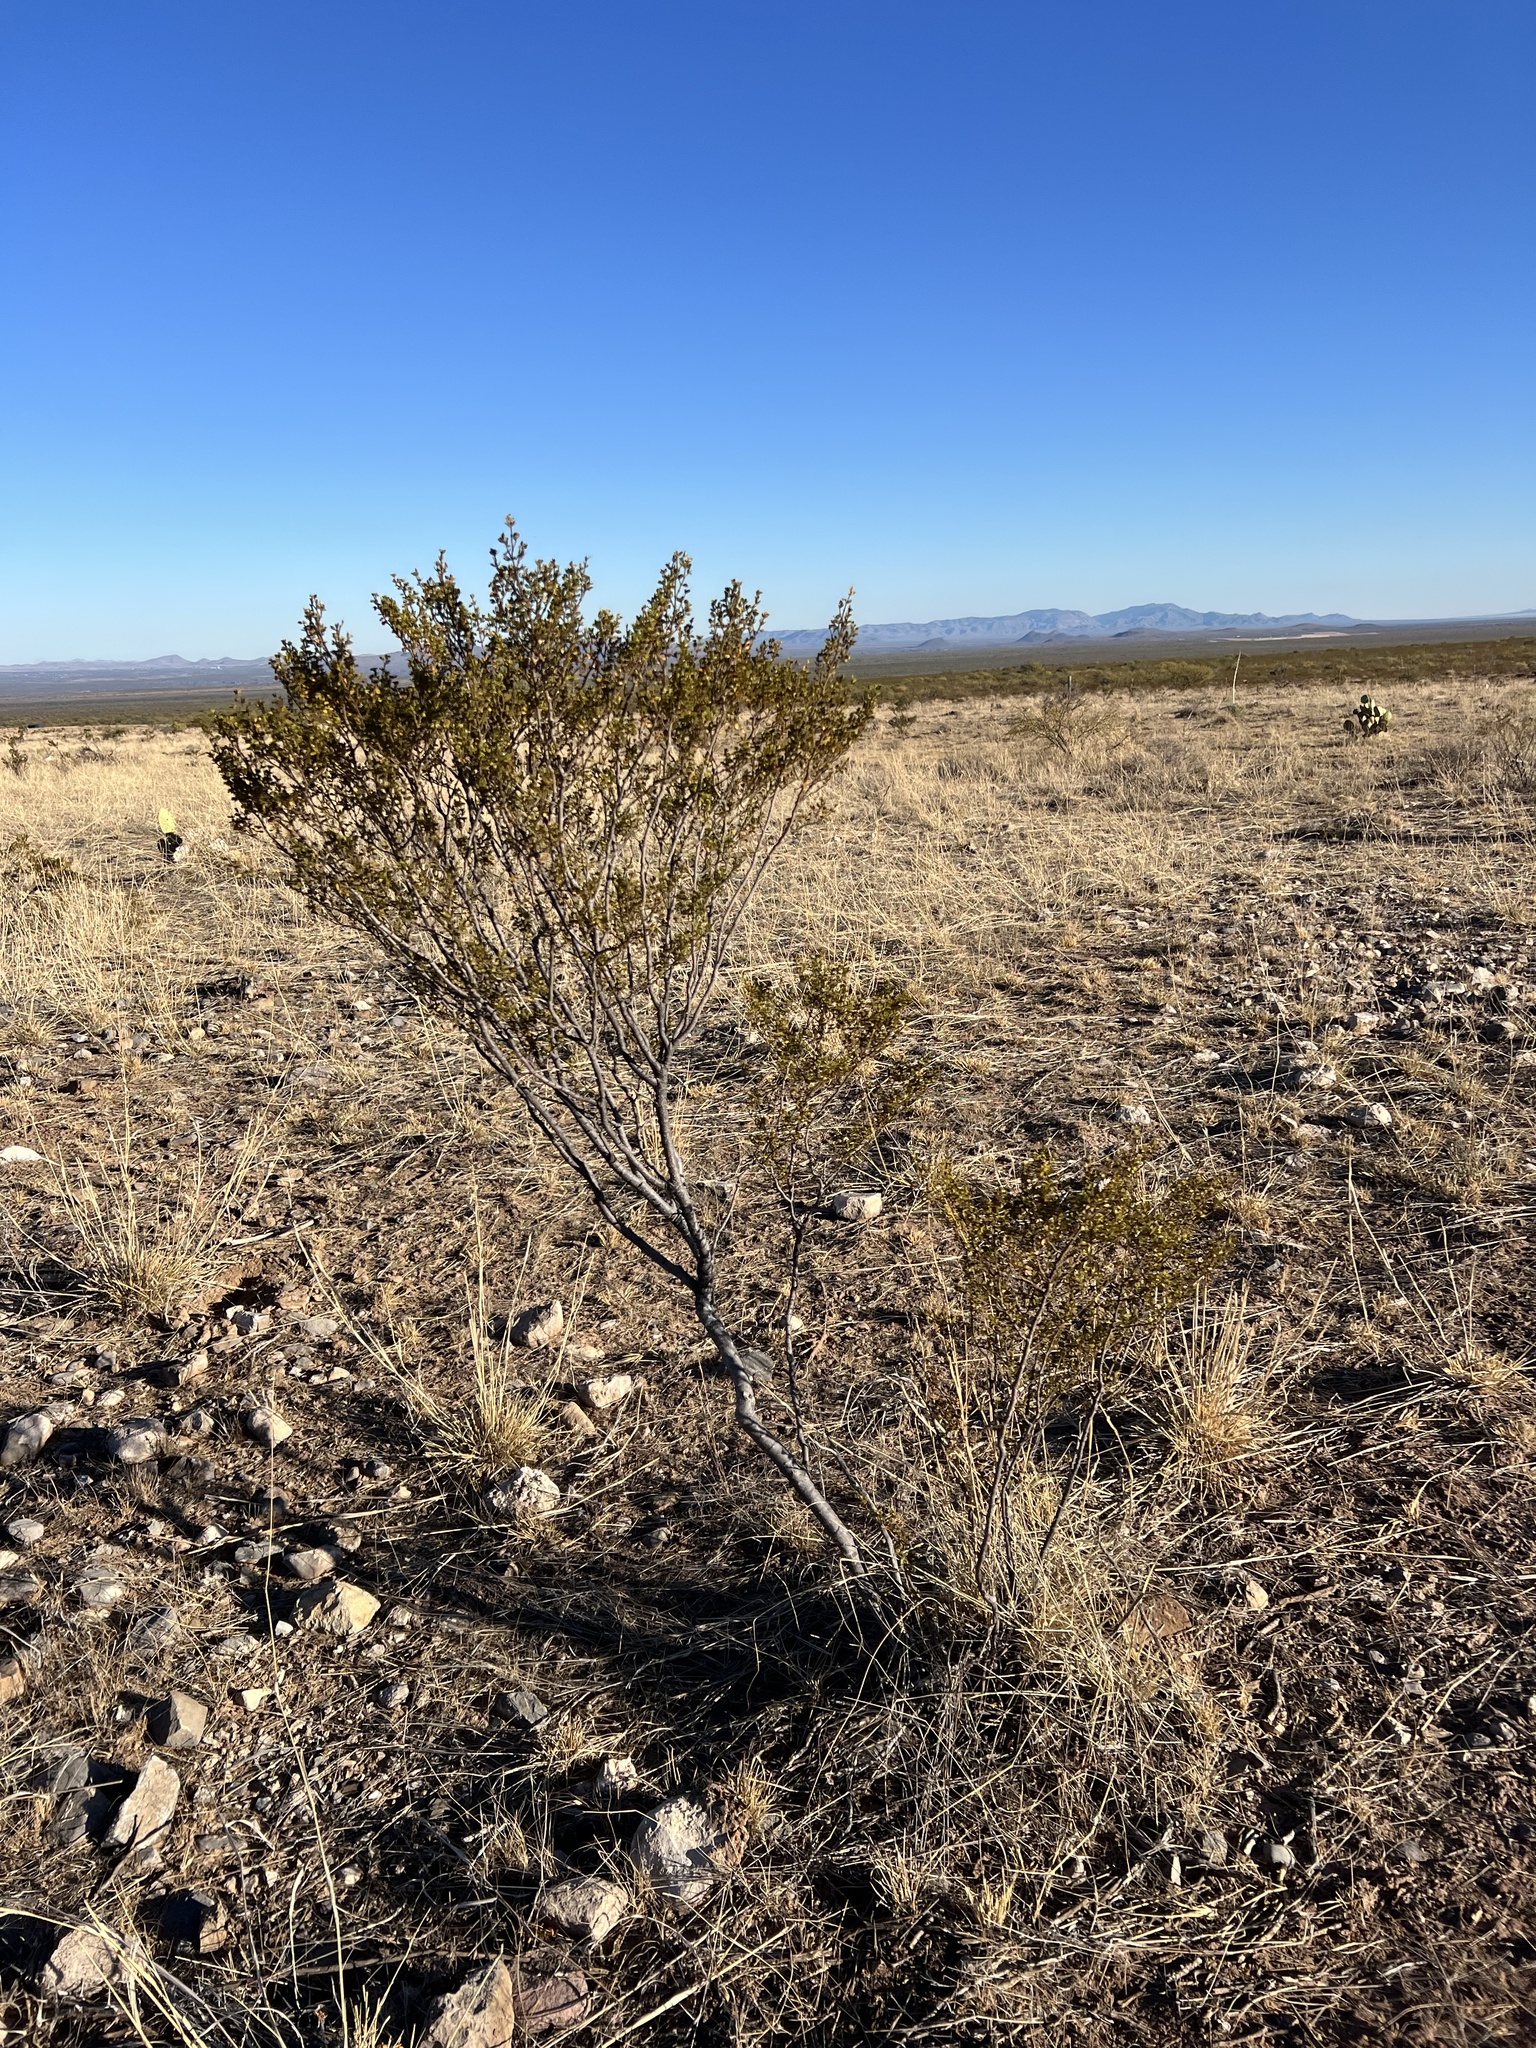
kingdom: Plantae
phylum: Tracheophyta
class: Magnoliopsida
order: Zygophyllales
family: Zygophyllaceae
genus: Larrea
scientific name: Larrea tridentata
